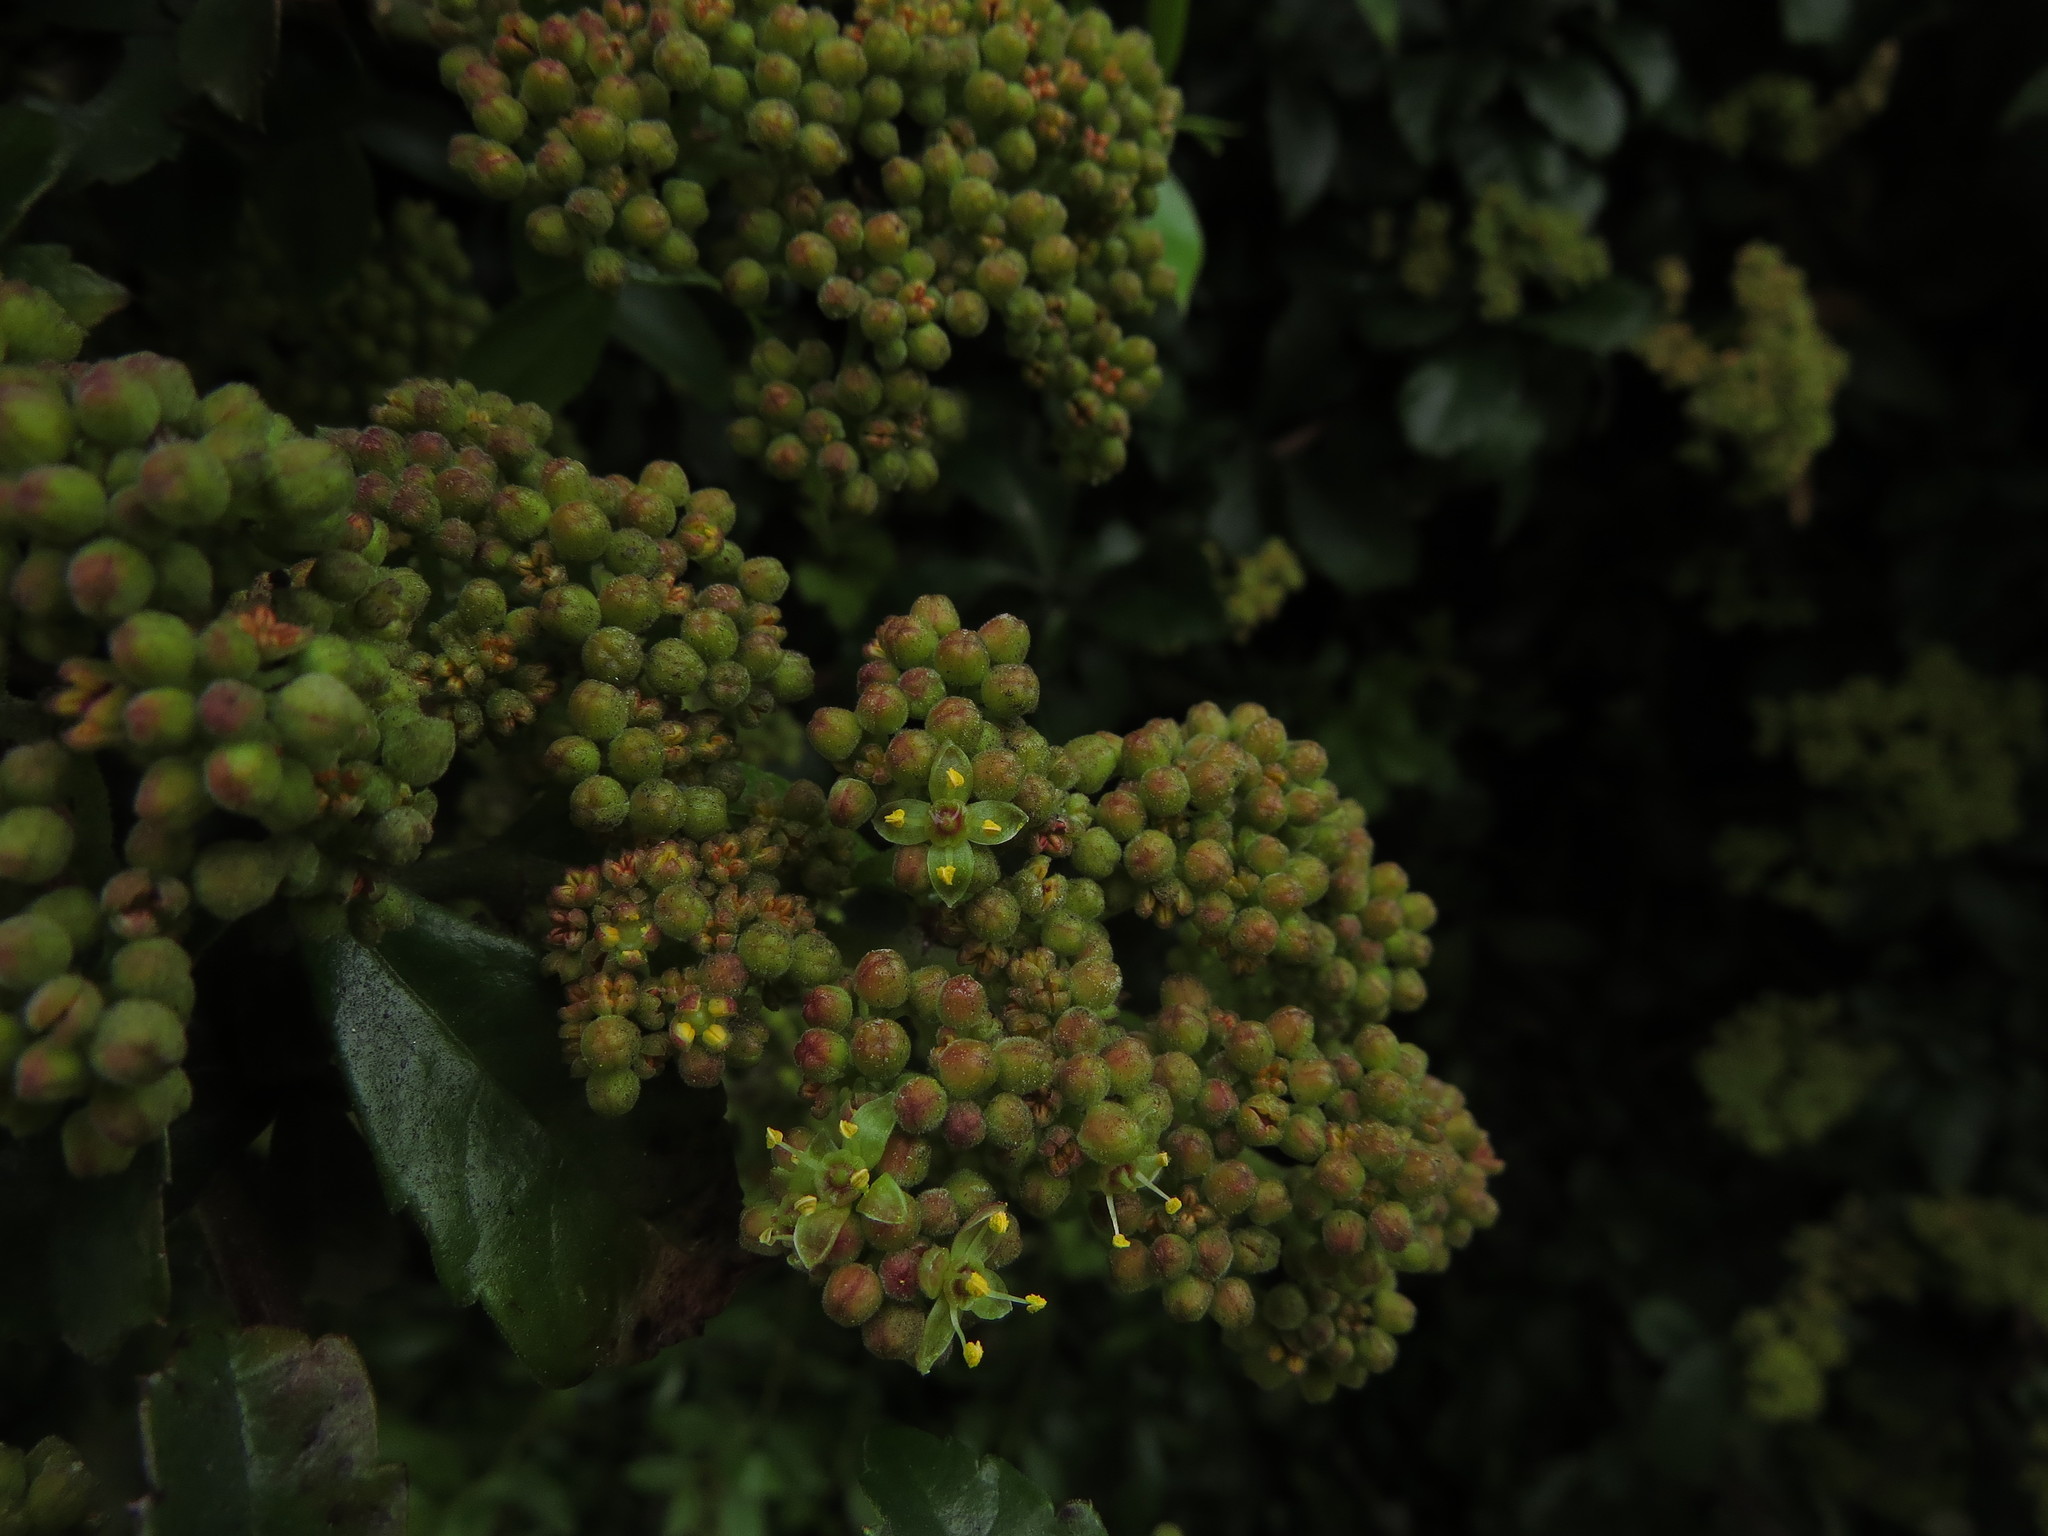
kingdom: Plantae
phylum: Tracheophyta
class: Magnoliopsida
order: Vitales
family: Vitaceae
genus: Clematicissus
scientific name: Clematicissus striata
